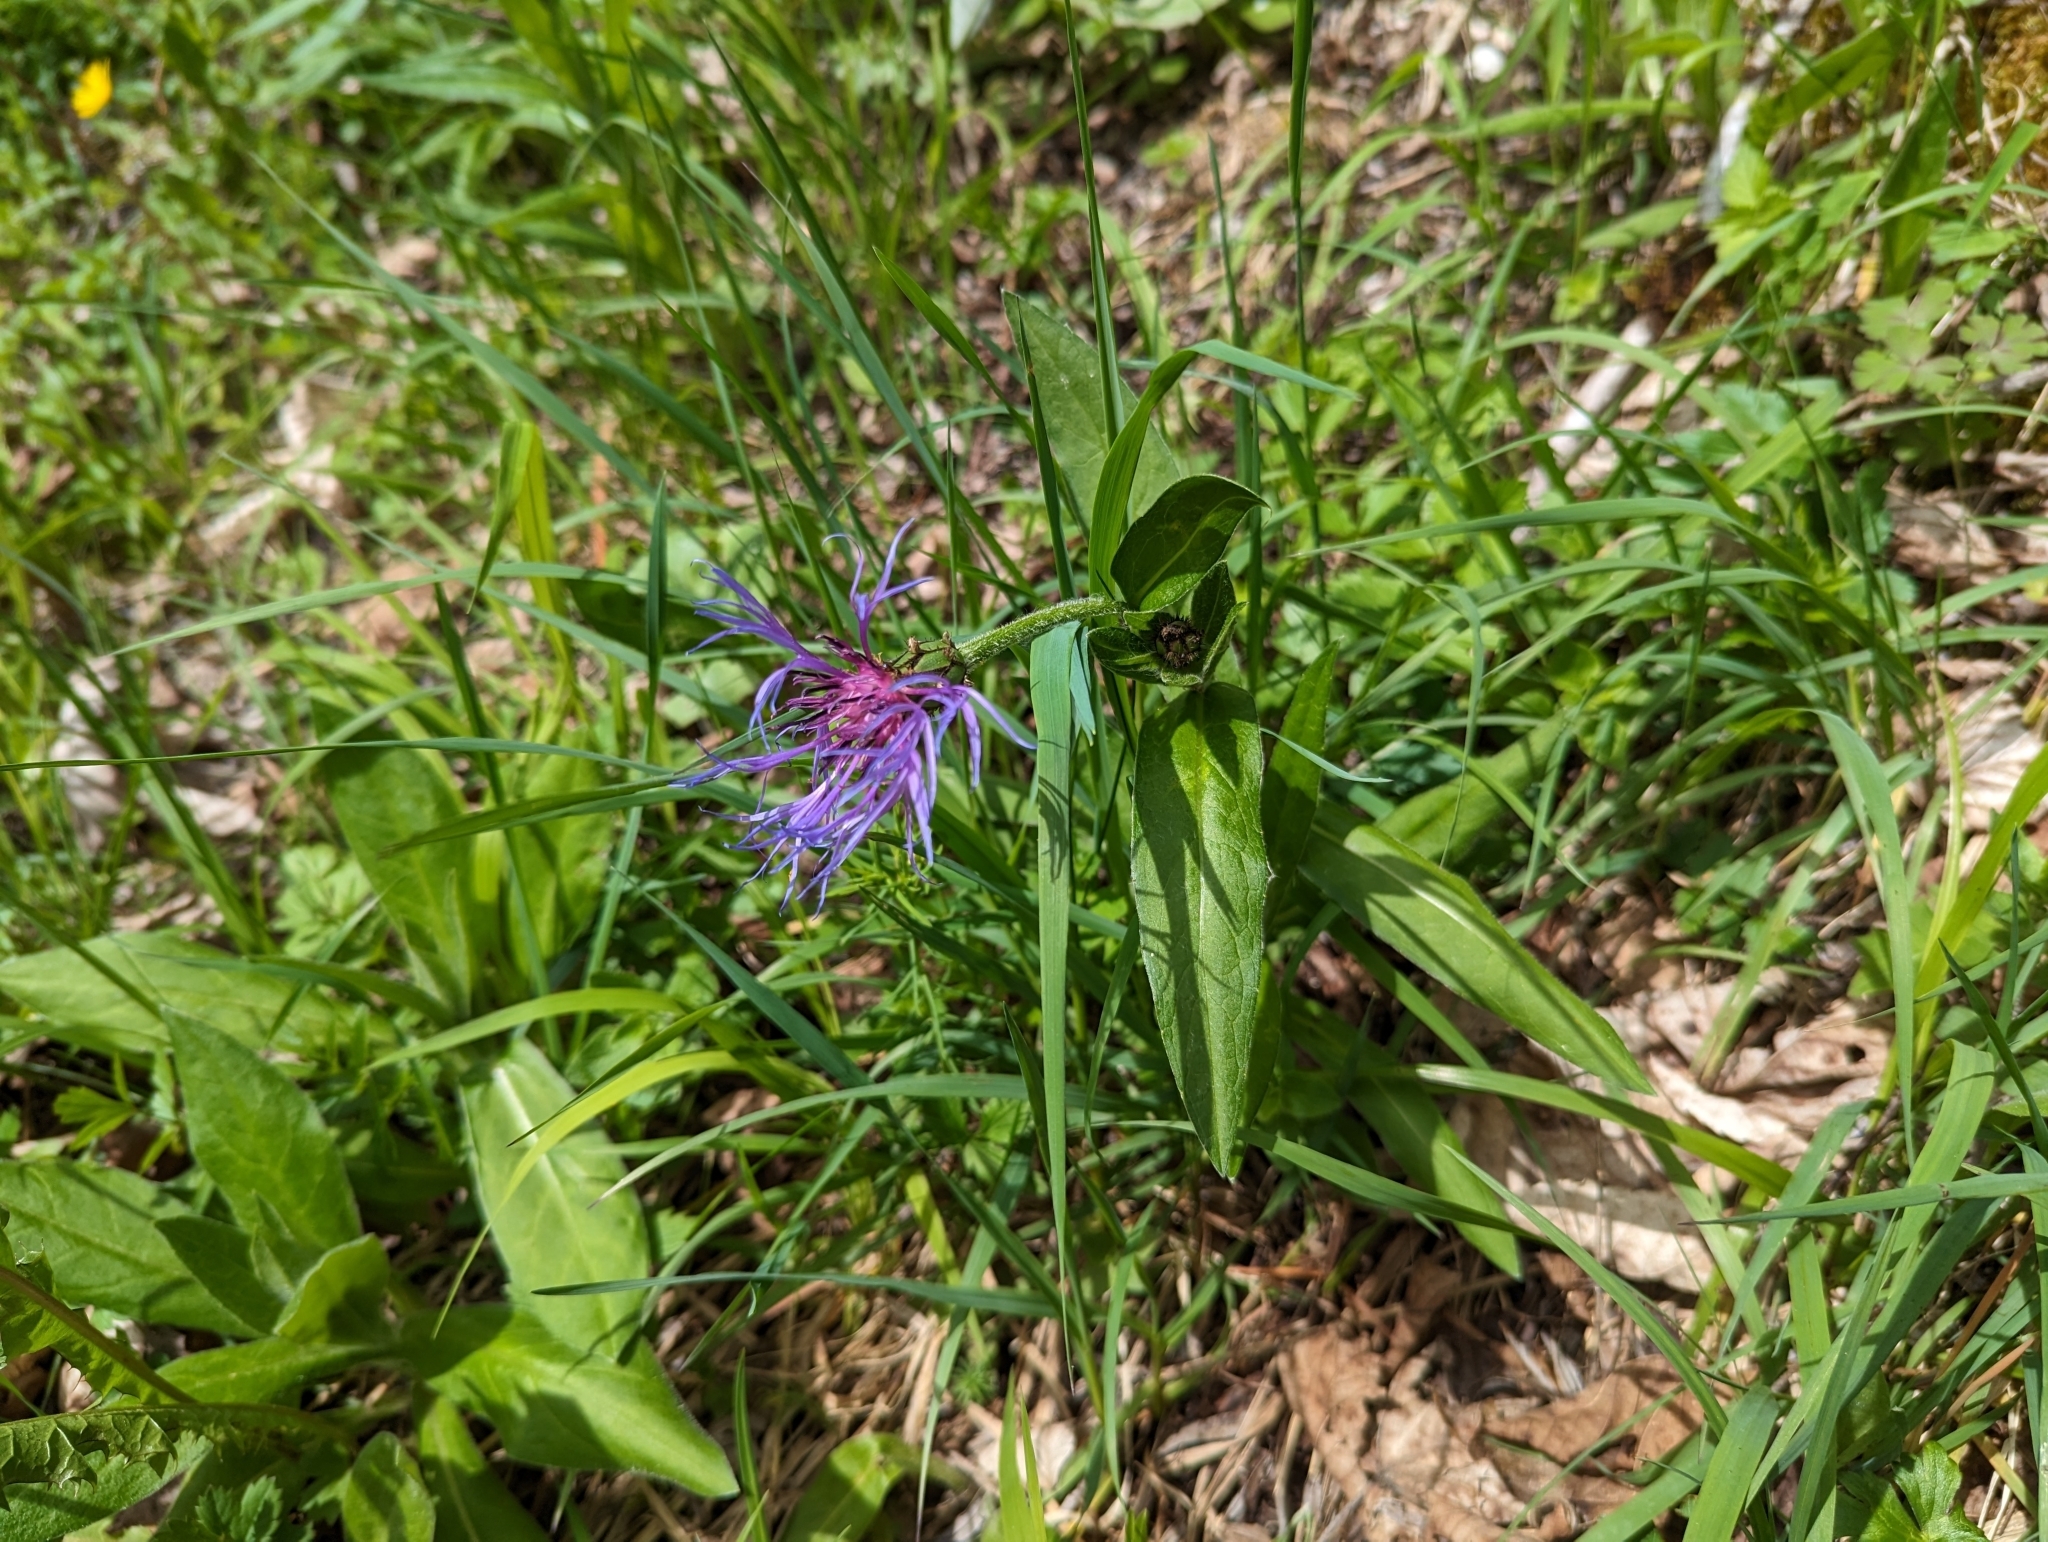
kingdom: Plantae
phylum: Tracheophyta
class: Magnoliopsida
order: Asterales
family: Asteraceae
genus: Centaurea
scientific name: Centaurea montana
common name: Perennial cornflower
